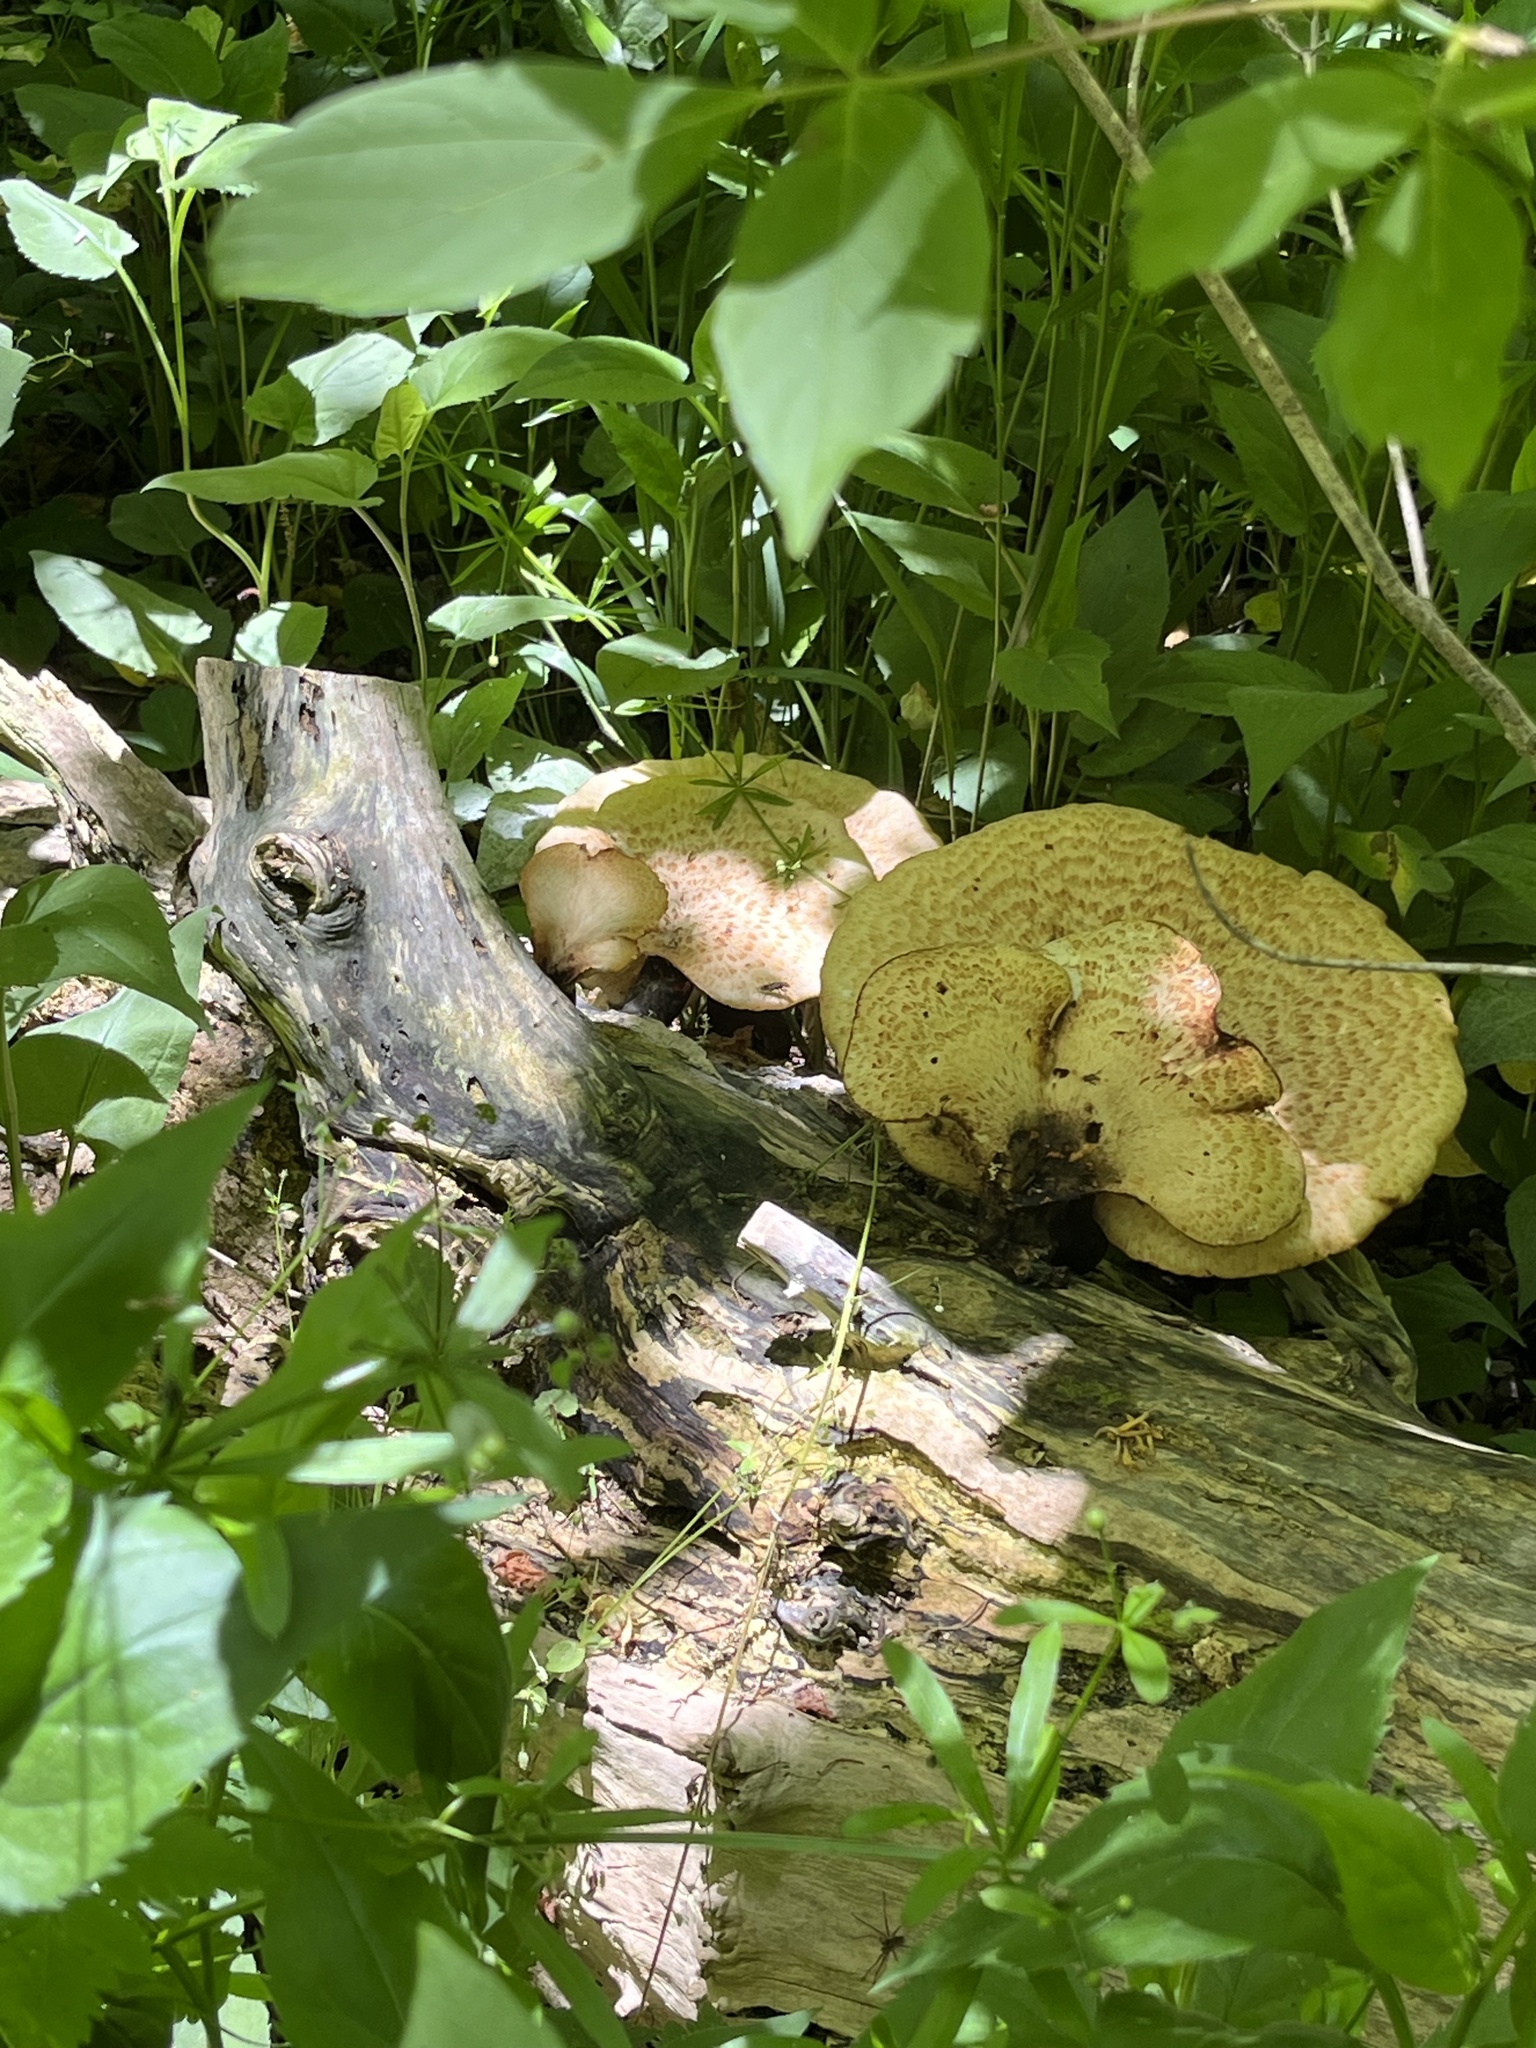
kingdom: Fungi
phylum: Basidiomycota
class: Agaricomycetes
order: Polyporales
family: Polyporaceae
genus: Cerioporus
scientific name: Cerioporus squamosus
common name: Dryad's saddle
